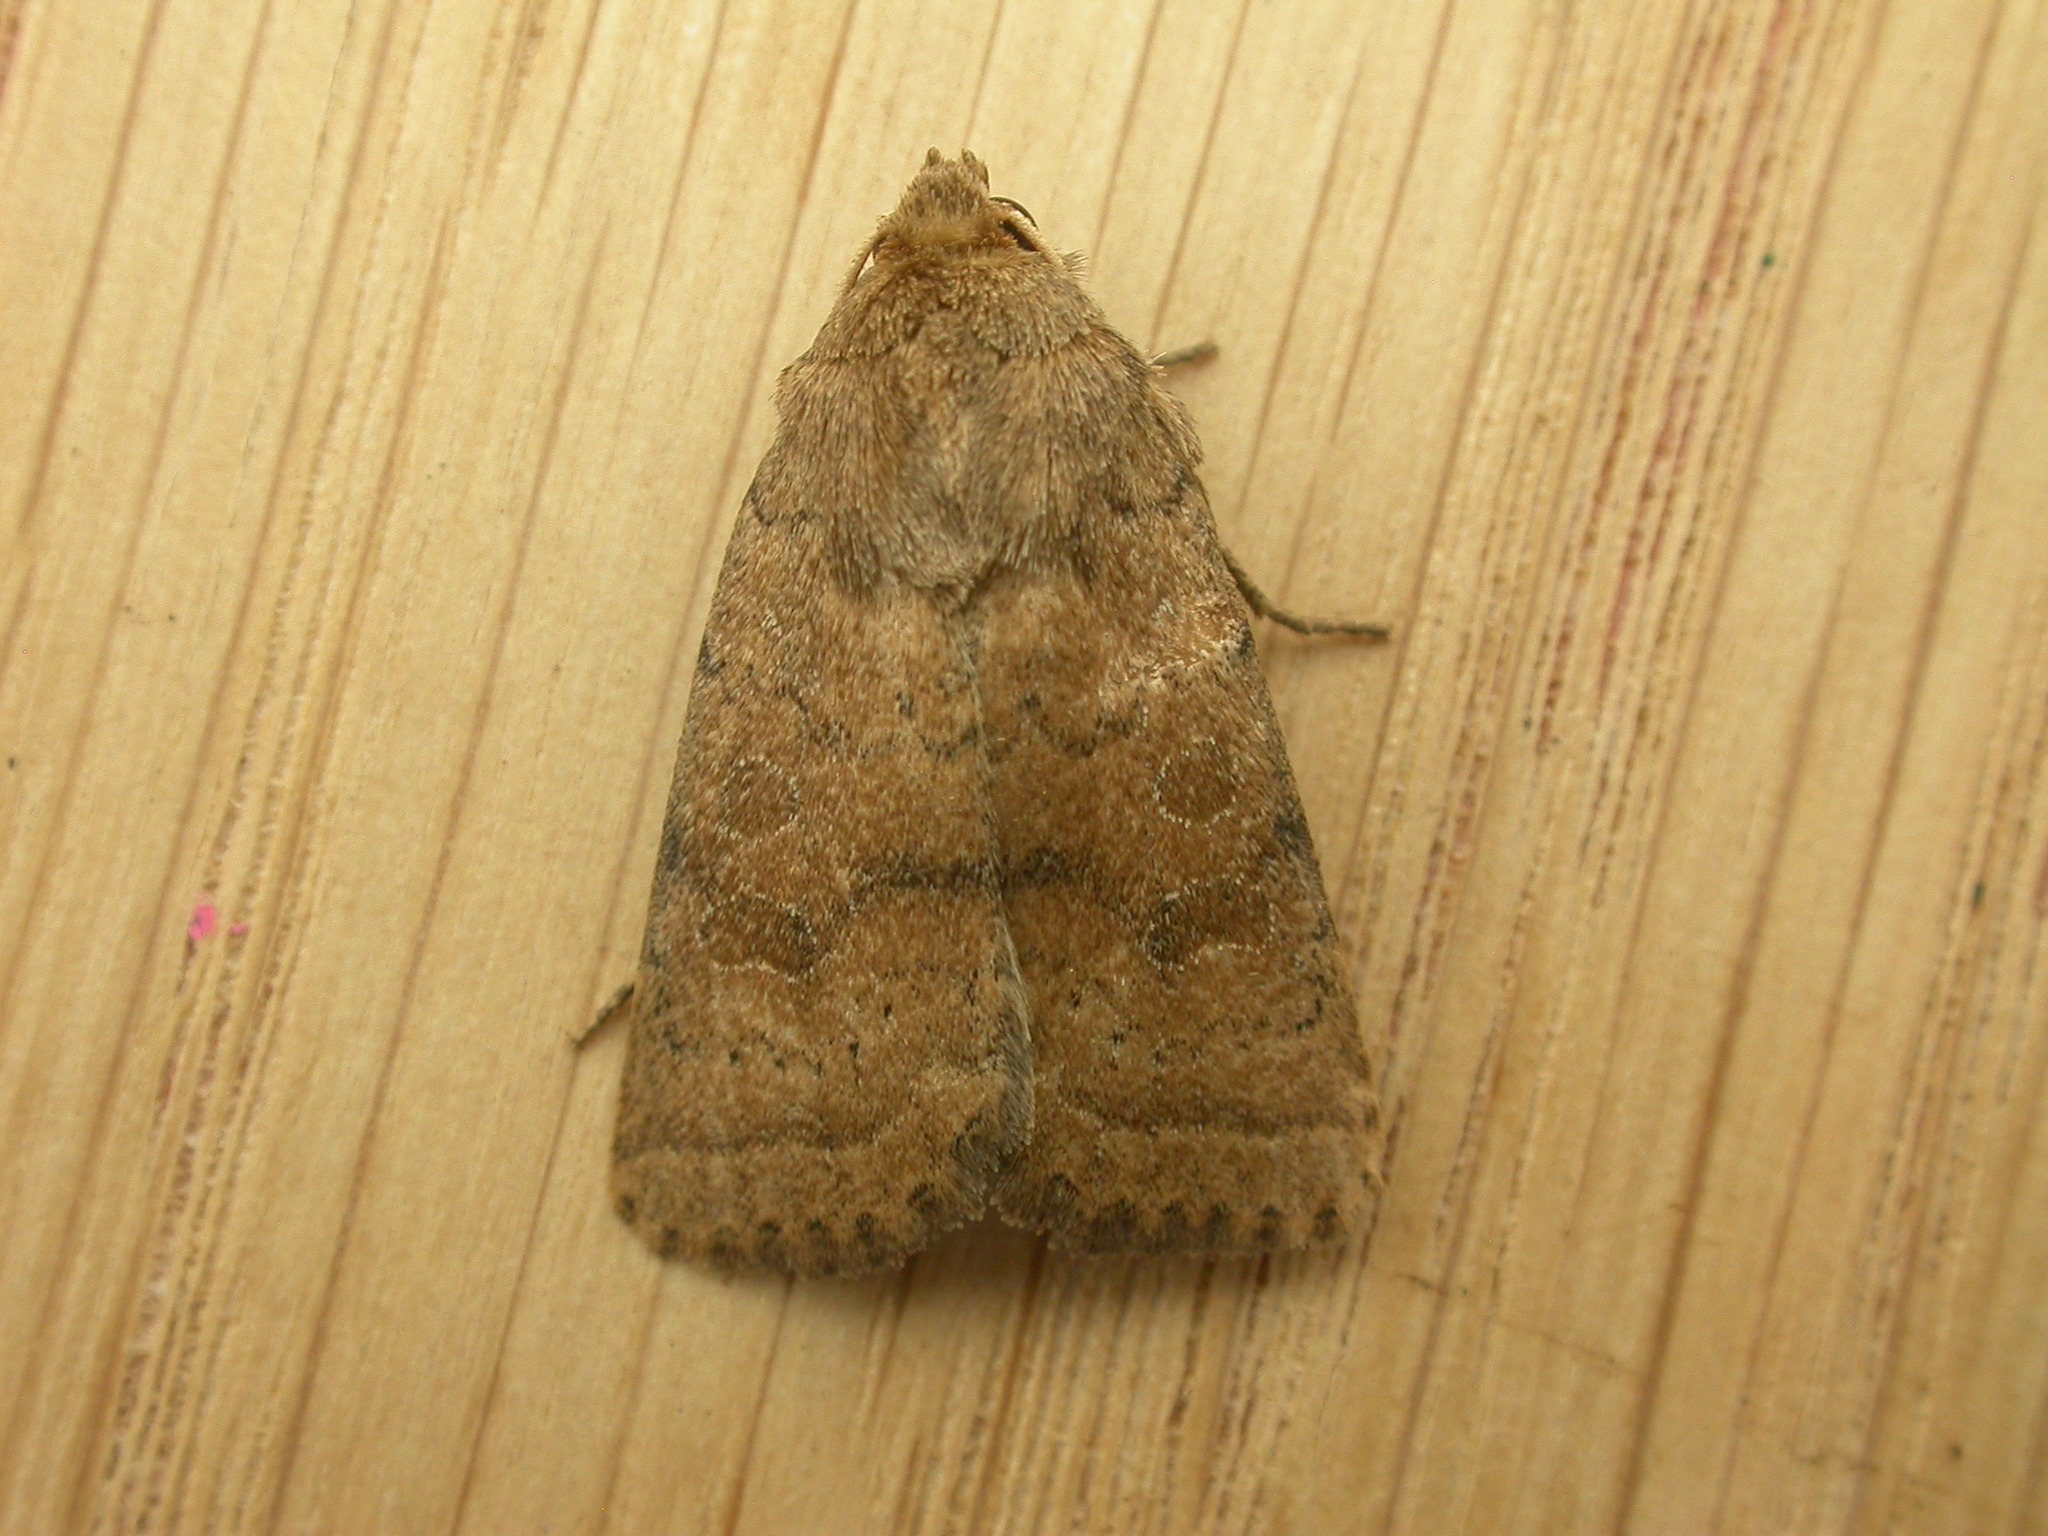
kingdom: Animalia
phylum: Arthropoda
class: Insecta
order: Lepidoptera
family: Noctuidae
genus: Hoplodrina
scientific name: Hoplodrina octogenaria
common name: Uncertain
